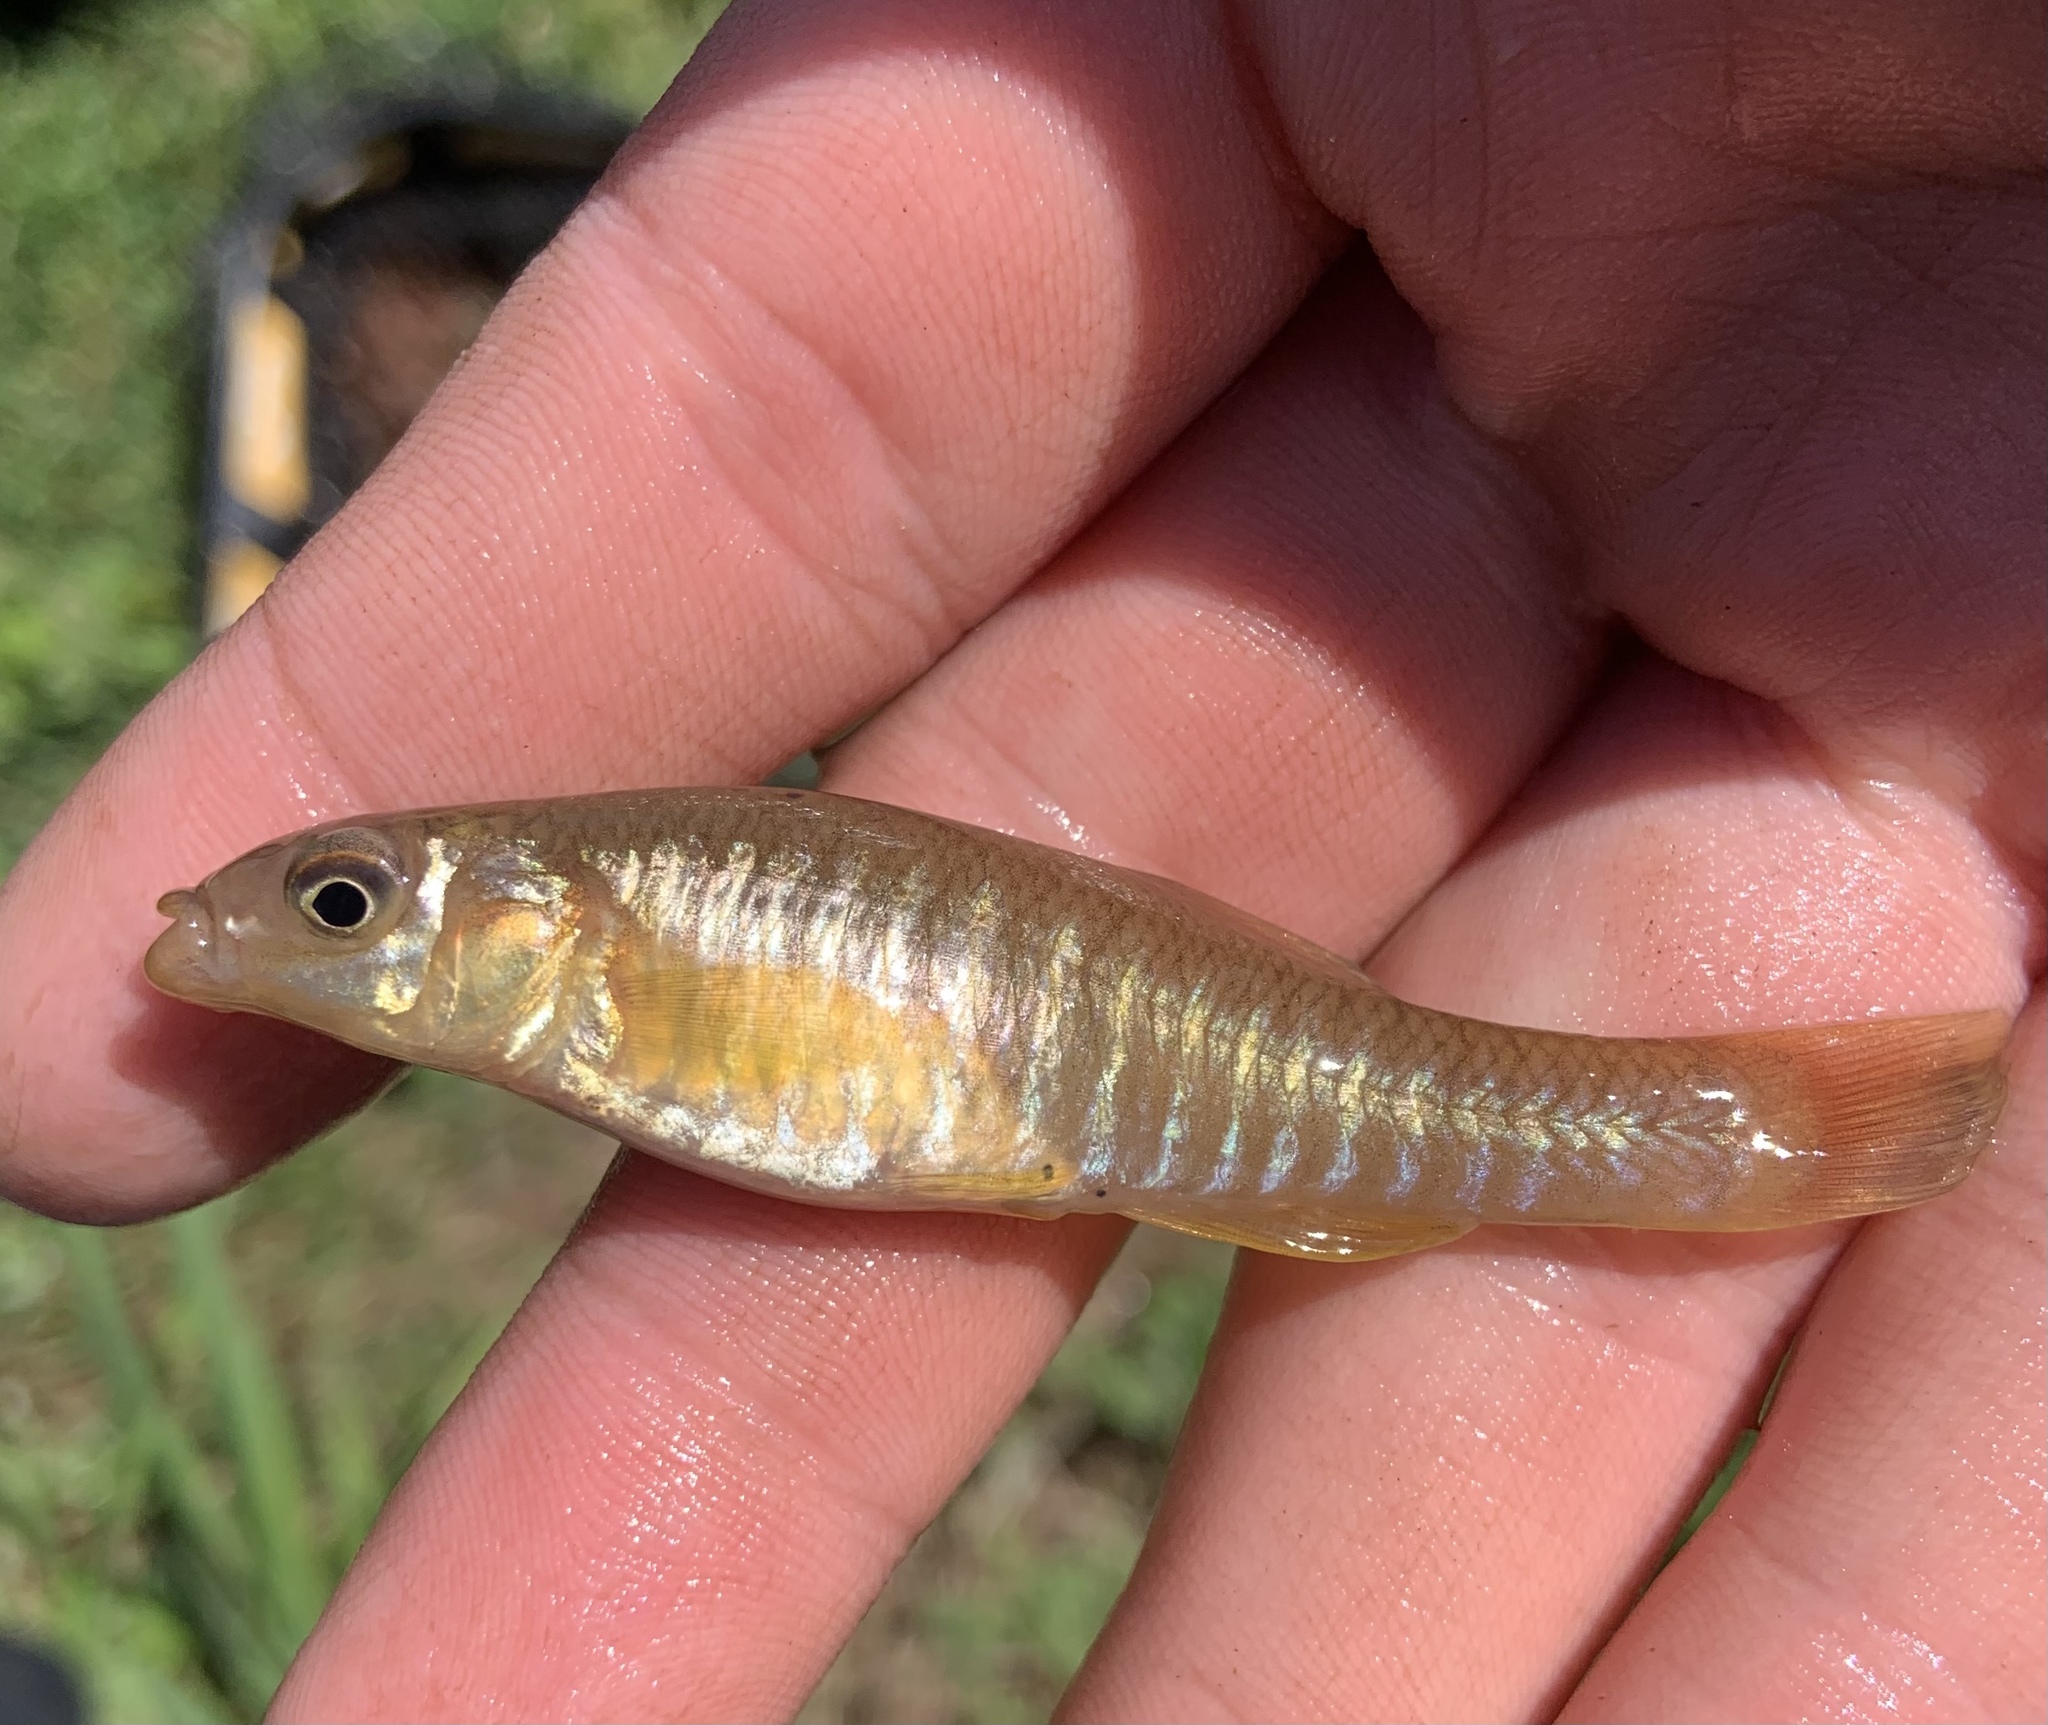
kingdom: Animalia
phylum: Chordata
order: Cyprinodontiformes
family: Fundulidae
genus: Fundulus
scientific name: Fundulus diaphanus
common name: Banded killifish
